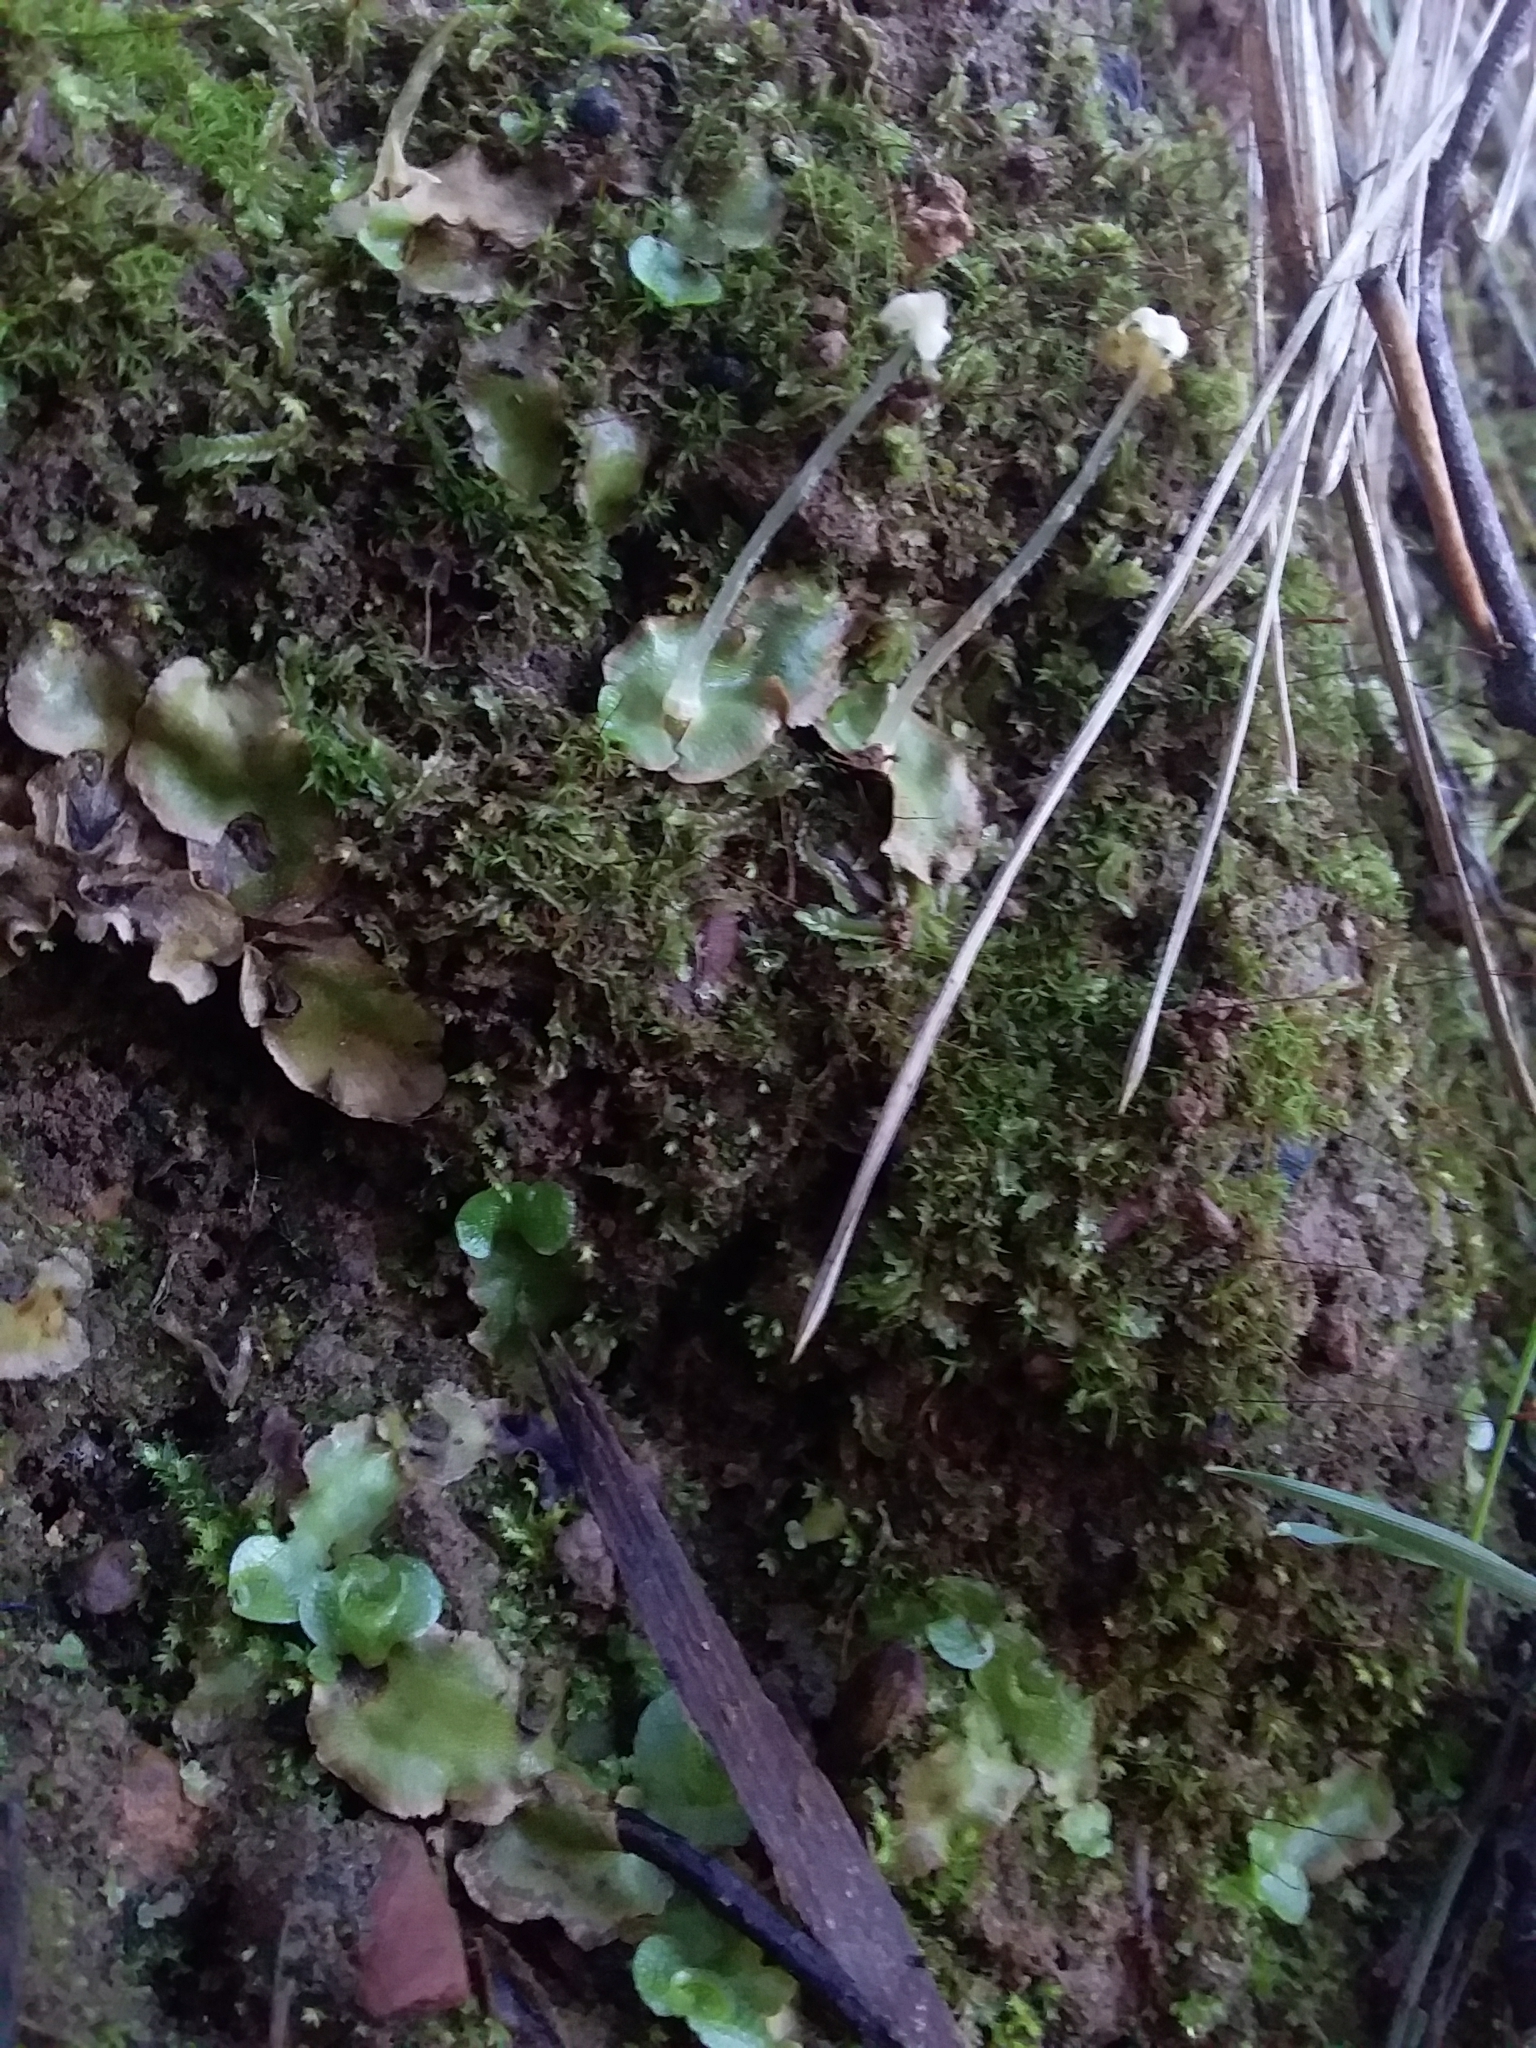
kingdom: Plantae
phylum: Marchantiophyta
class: Marchantiopsida
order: Lunulariales
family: Lunulariaceae
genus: Lunularia
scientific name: Lunularia cruciata
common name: Crescent-cup liverwort
